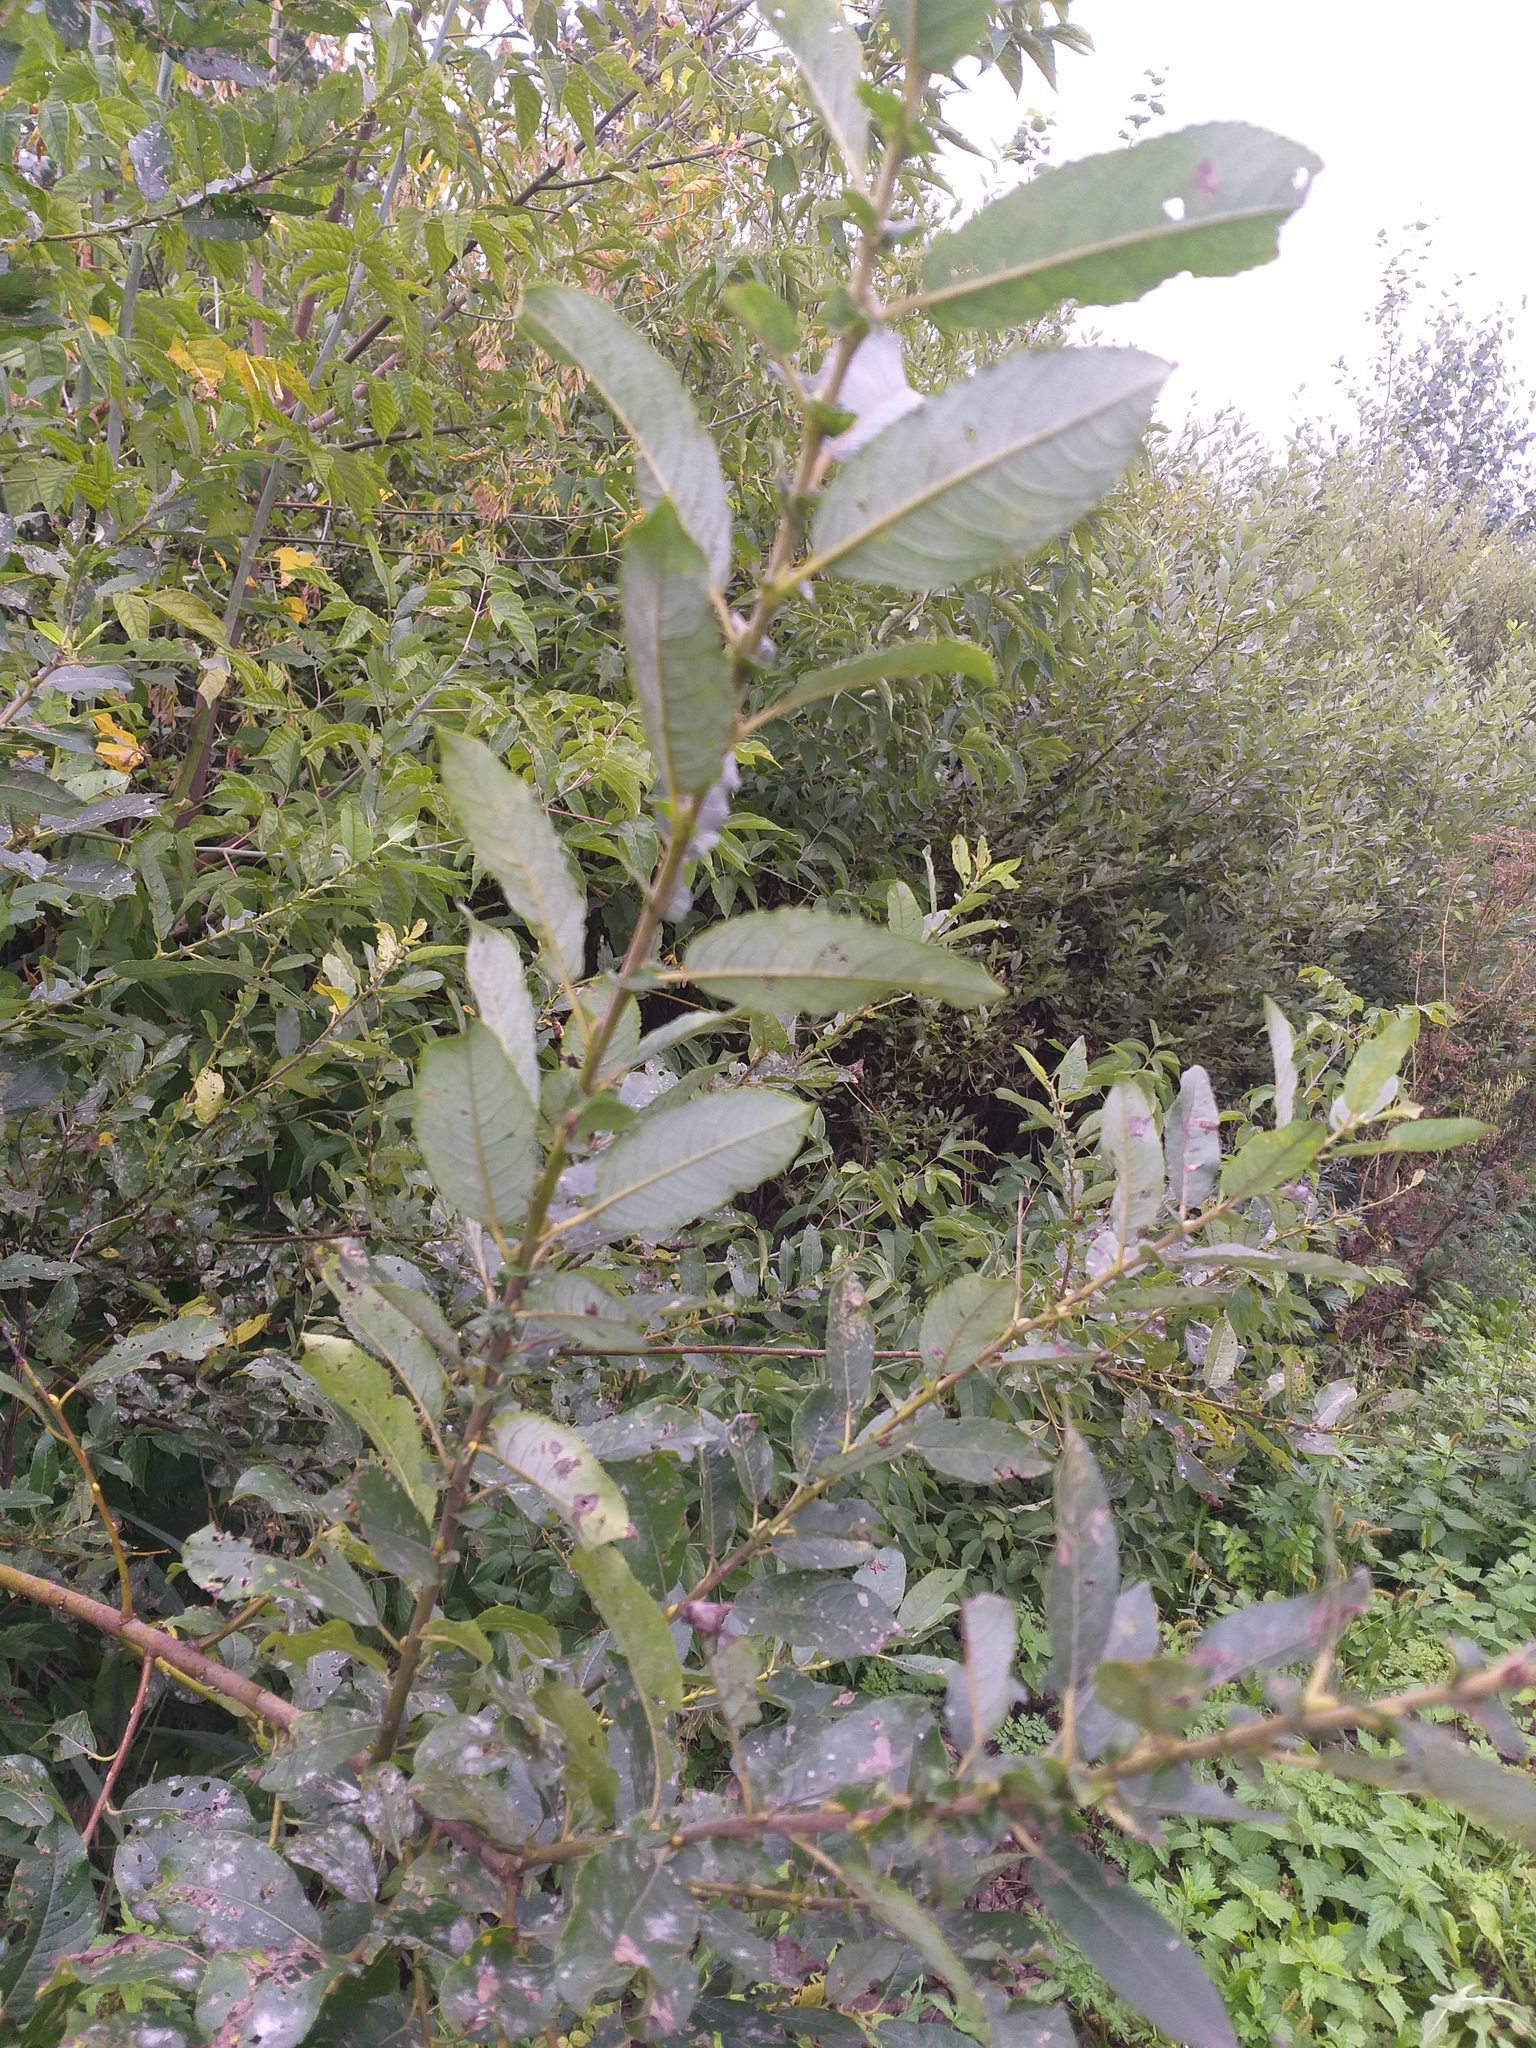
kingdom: Plantae
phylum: Tracheophyta
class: Magnoliopsida
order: Malpighiales
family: Salicaceae
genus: Salix
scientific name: Salix myrsinifolia
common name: Dark-leaved willow
